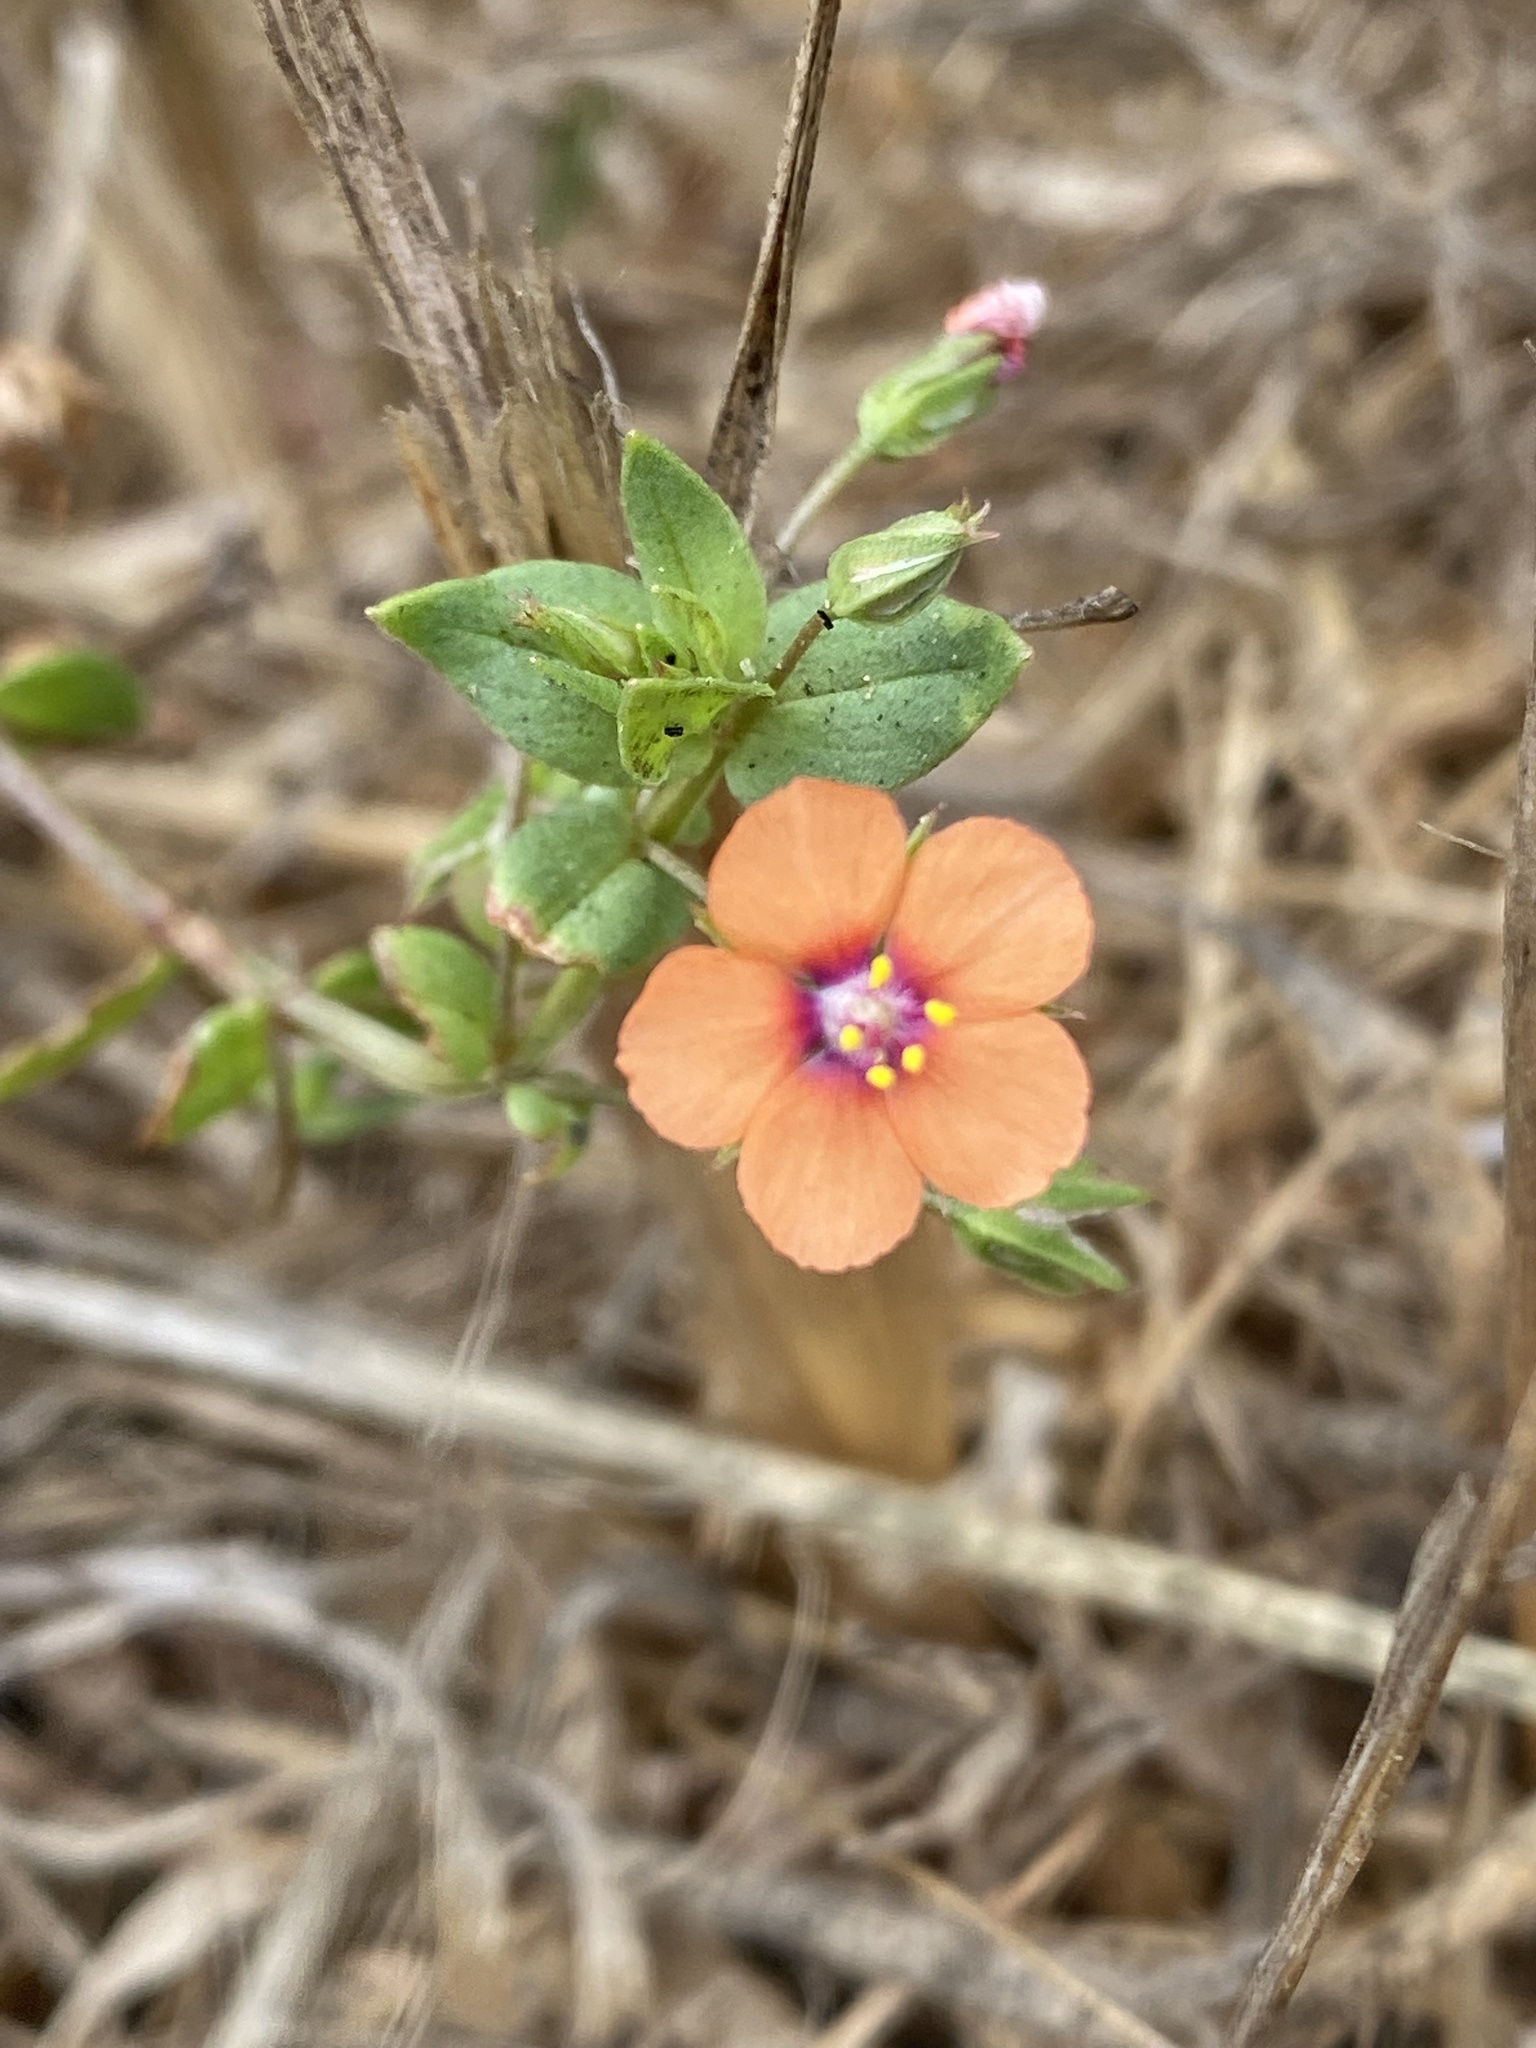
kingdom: Plantae
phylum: Tracheophyta
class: Magnoliopsida
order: Ericales
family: Primulaceae
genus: Lysimachia
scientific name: Lysimachia arvensis
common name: Scarlet pimpernel
